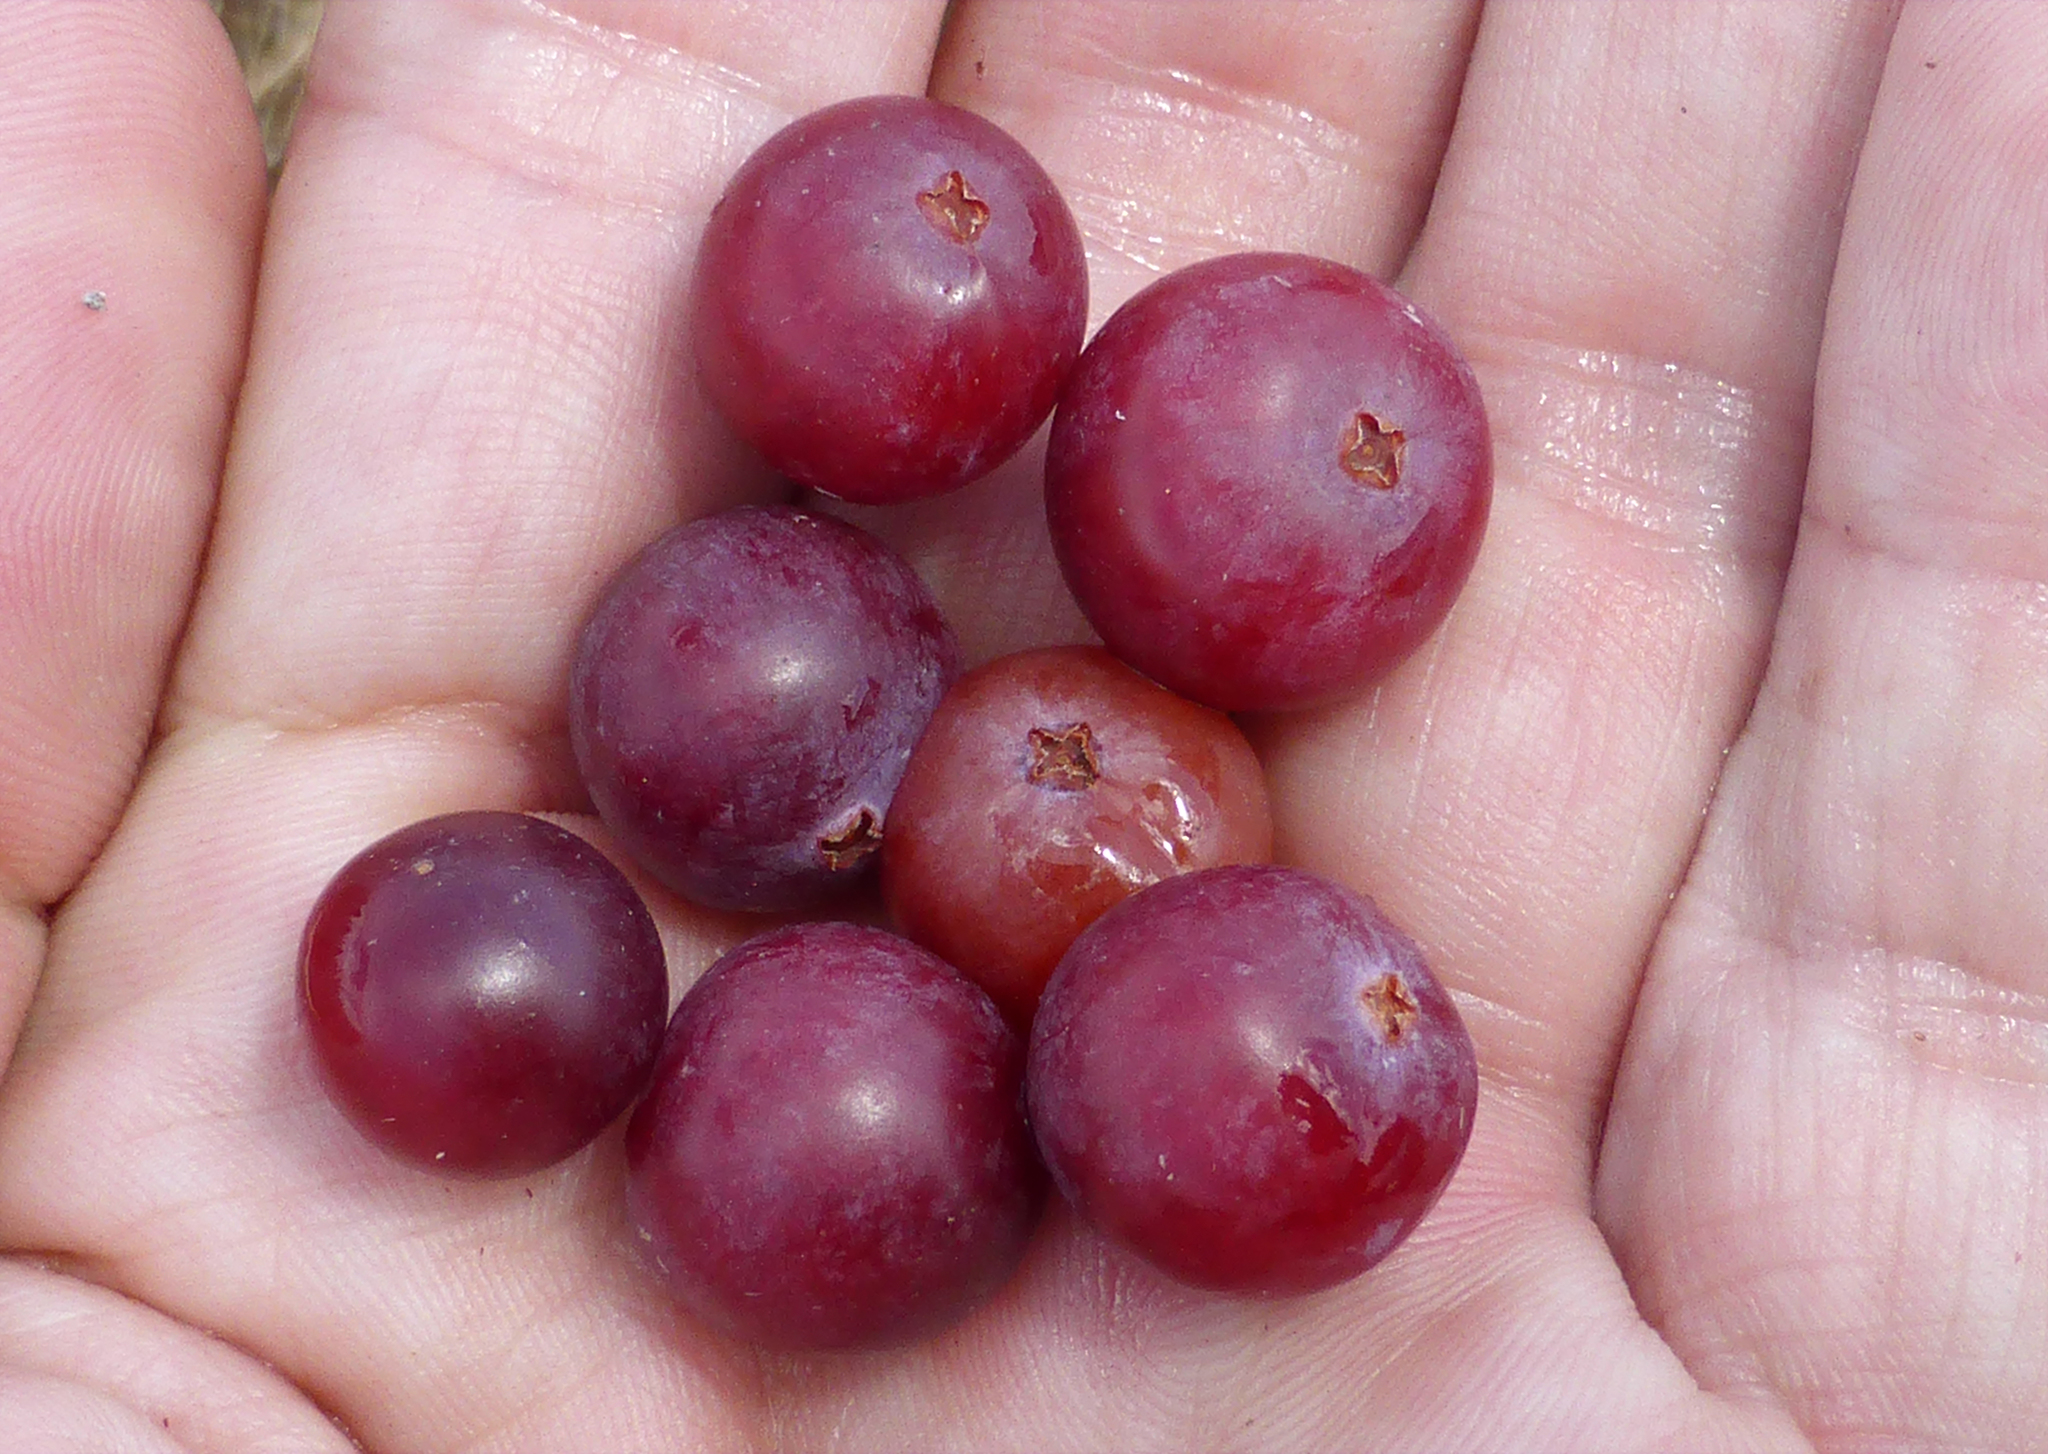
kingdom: Plantae
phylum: Tracheophyta
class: Magnoliopsida
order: Ericales
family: Ericaceae
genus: Vaccinium
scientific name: Vaccinium macrocarpon
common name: American cranberry
